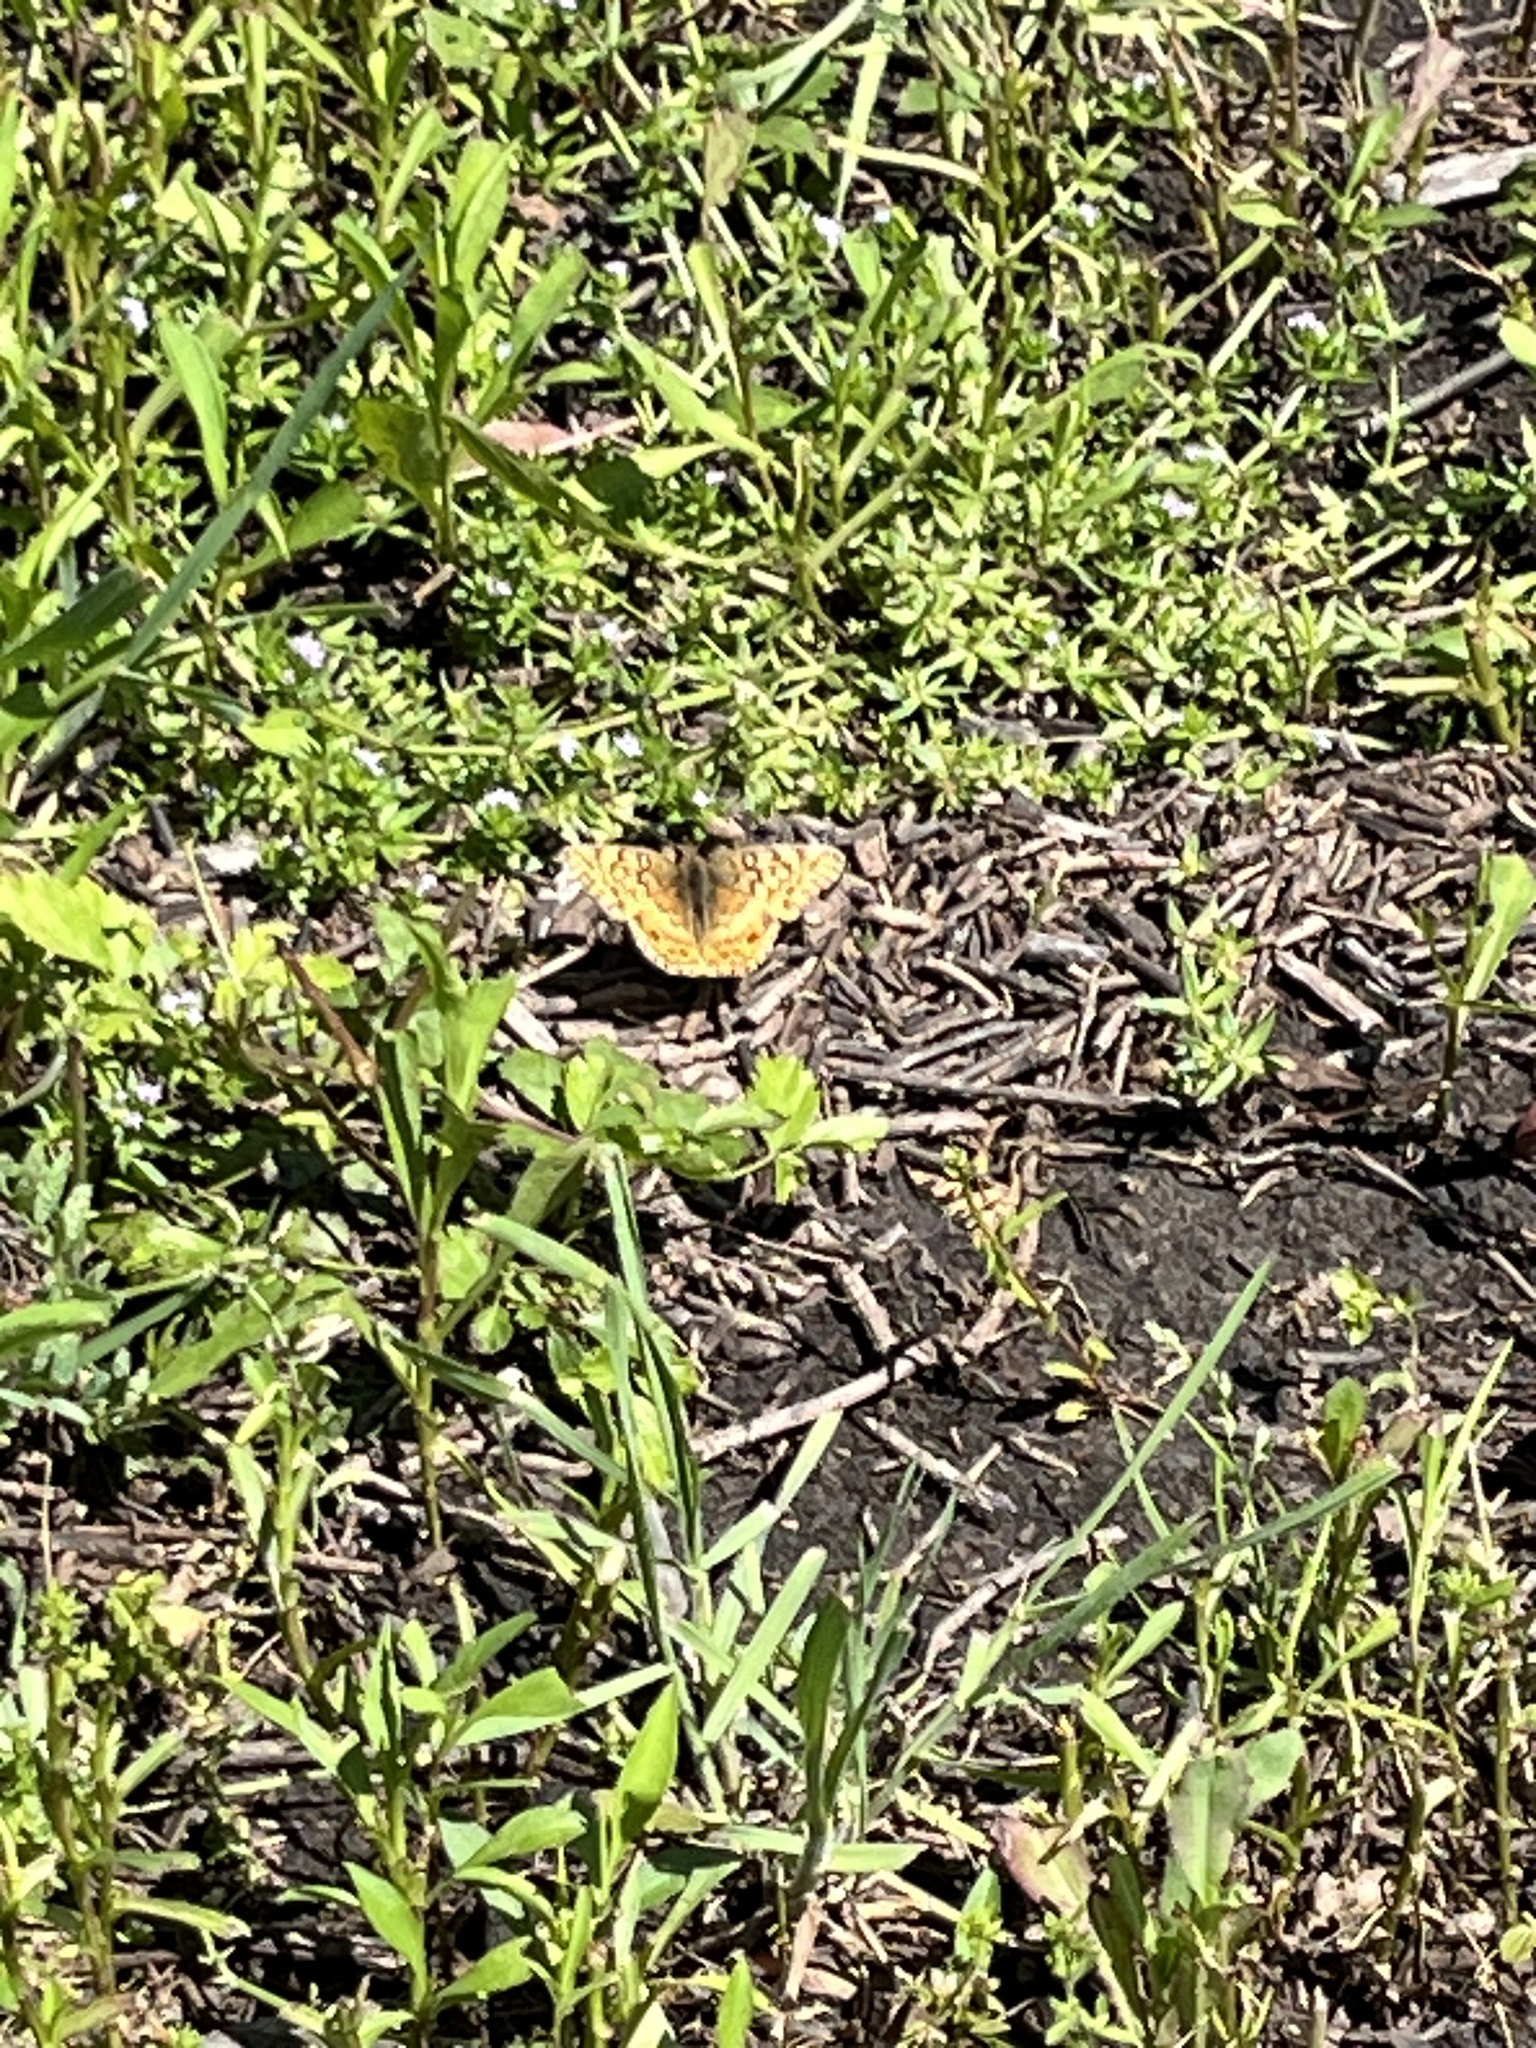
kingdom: Animalia
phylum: Arthropoda
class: Insecta
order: Lepidoptera
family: Nymphalidae
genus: Euptoieta
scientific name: Euptoieta claudia
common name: Variegated fritillary
